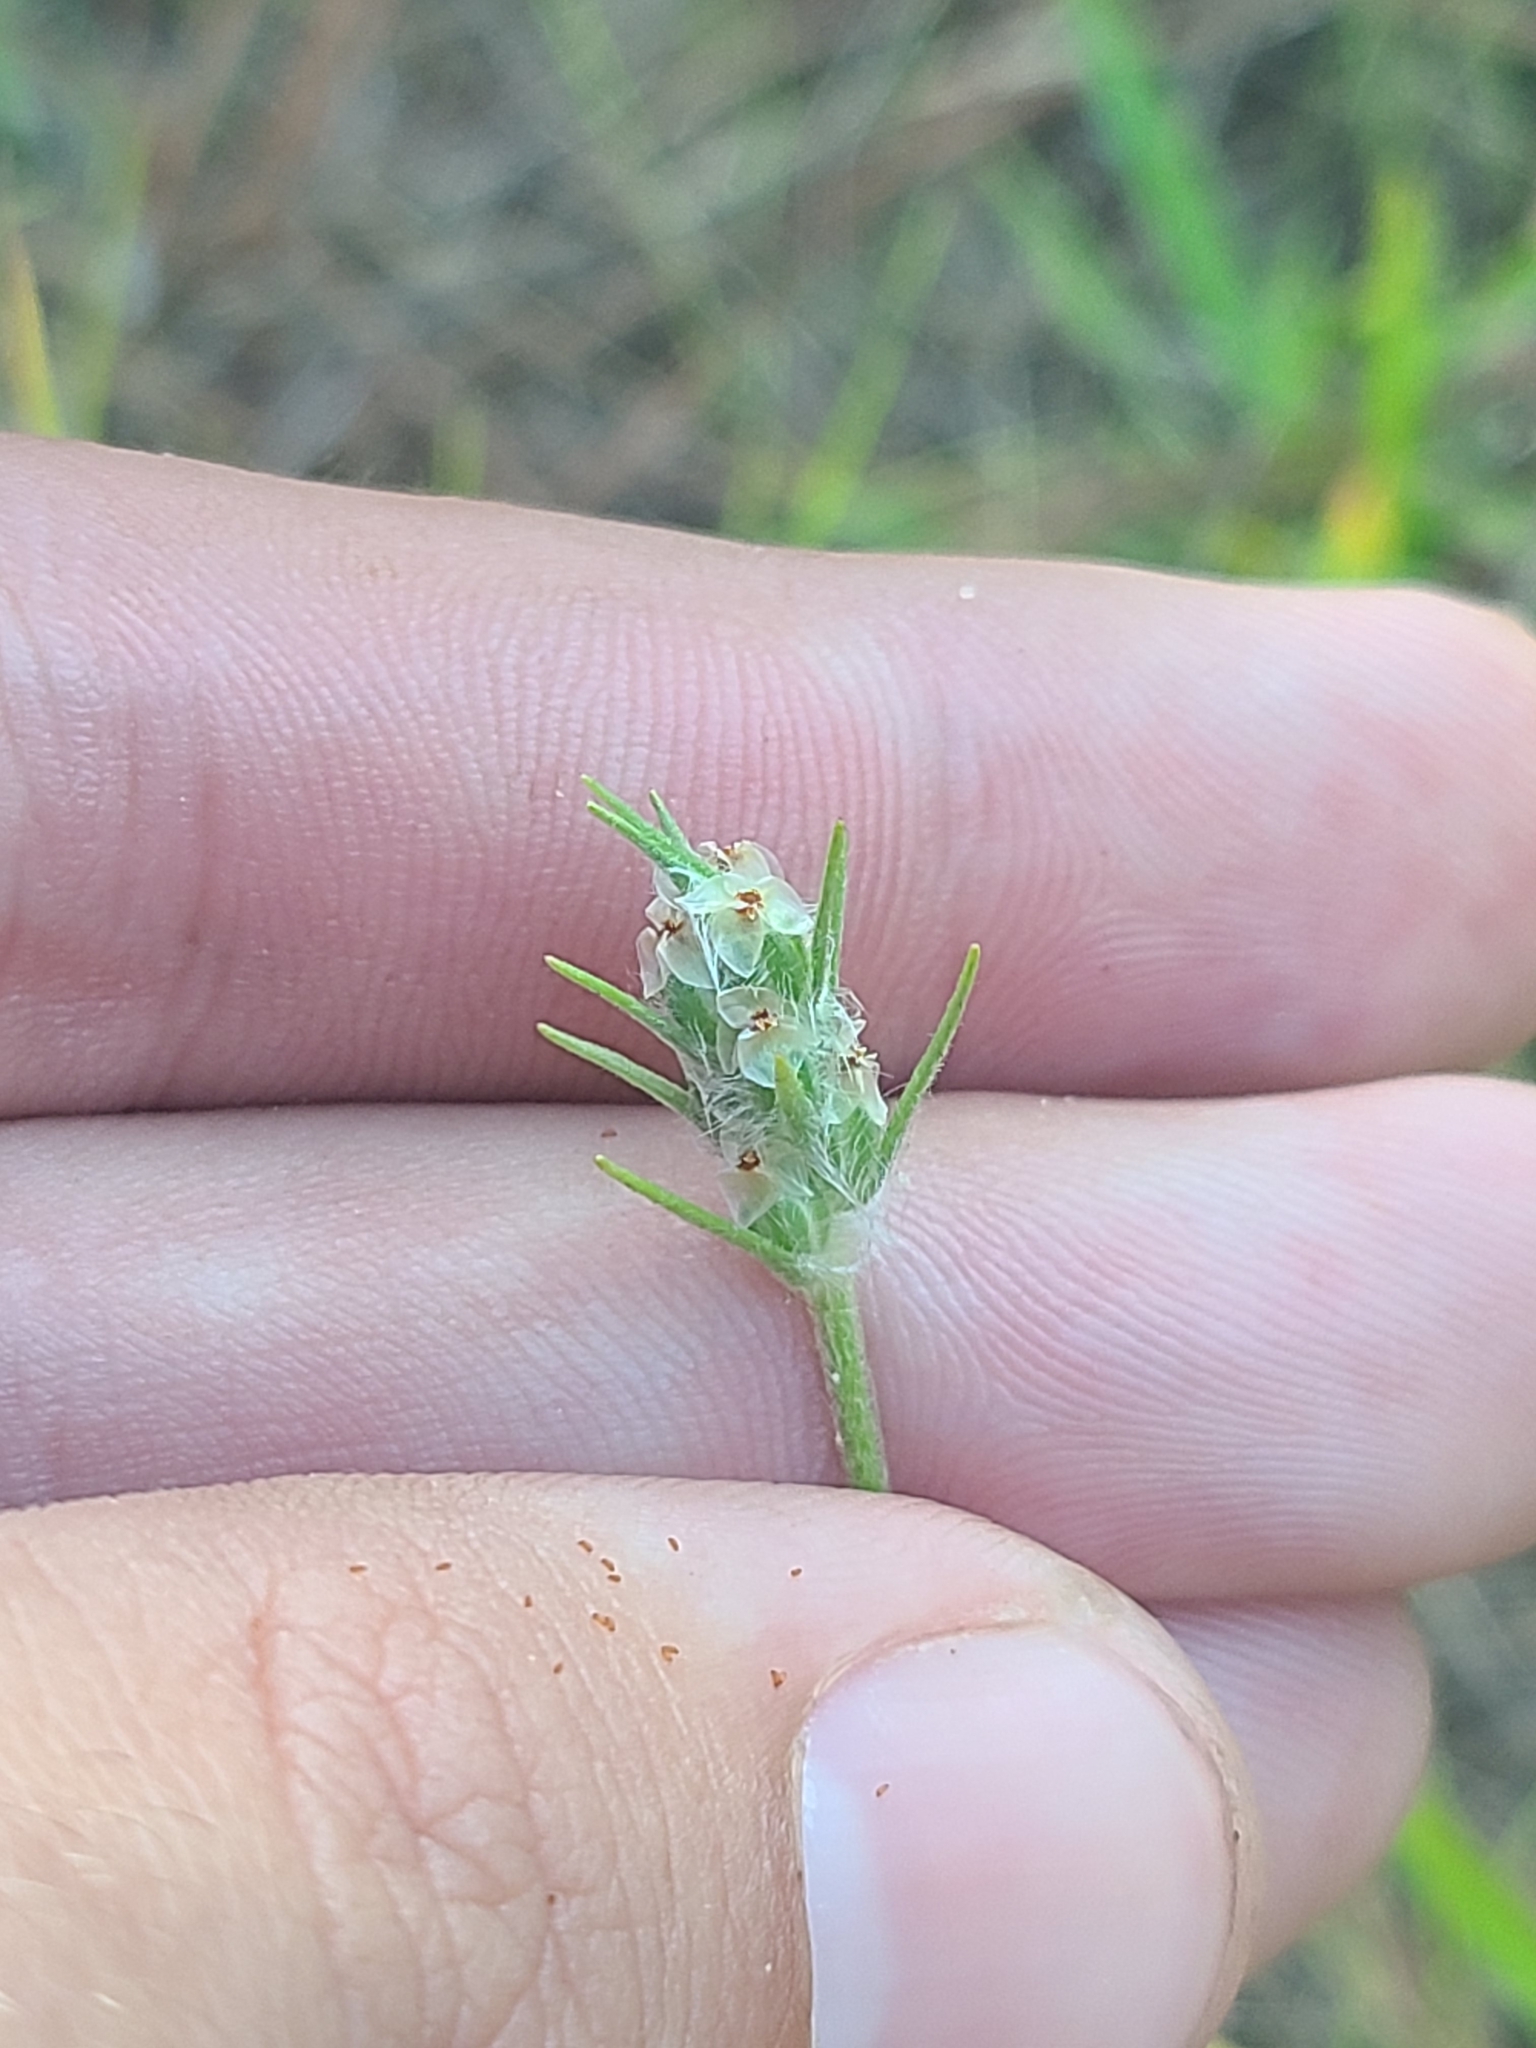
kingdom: Plantae
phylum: Tracheophyta
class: Magnoliopsida
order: Lamiales
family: Plantaginaceae
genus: Plantago
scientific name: Plantago aristata
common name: Bracted plantain
